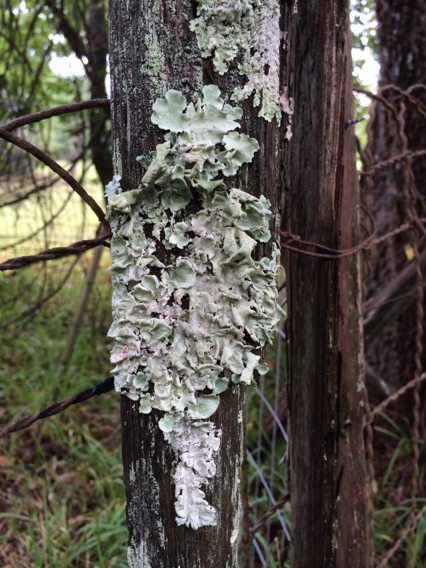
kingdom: Fungi
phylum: Ascomycota
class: Lecanoromycetes
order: Lecanorales
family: Parmeliaceae
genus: Flavoparmelia
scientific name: Flavoparmelia caperata
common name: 40-mile per hour lichen
